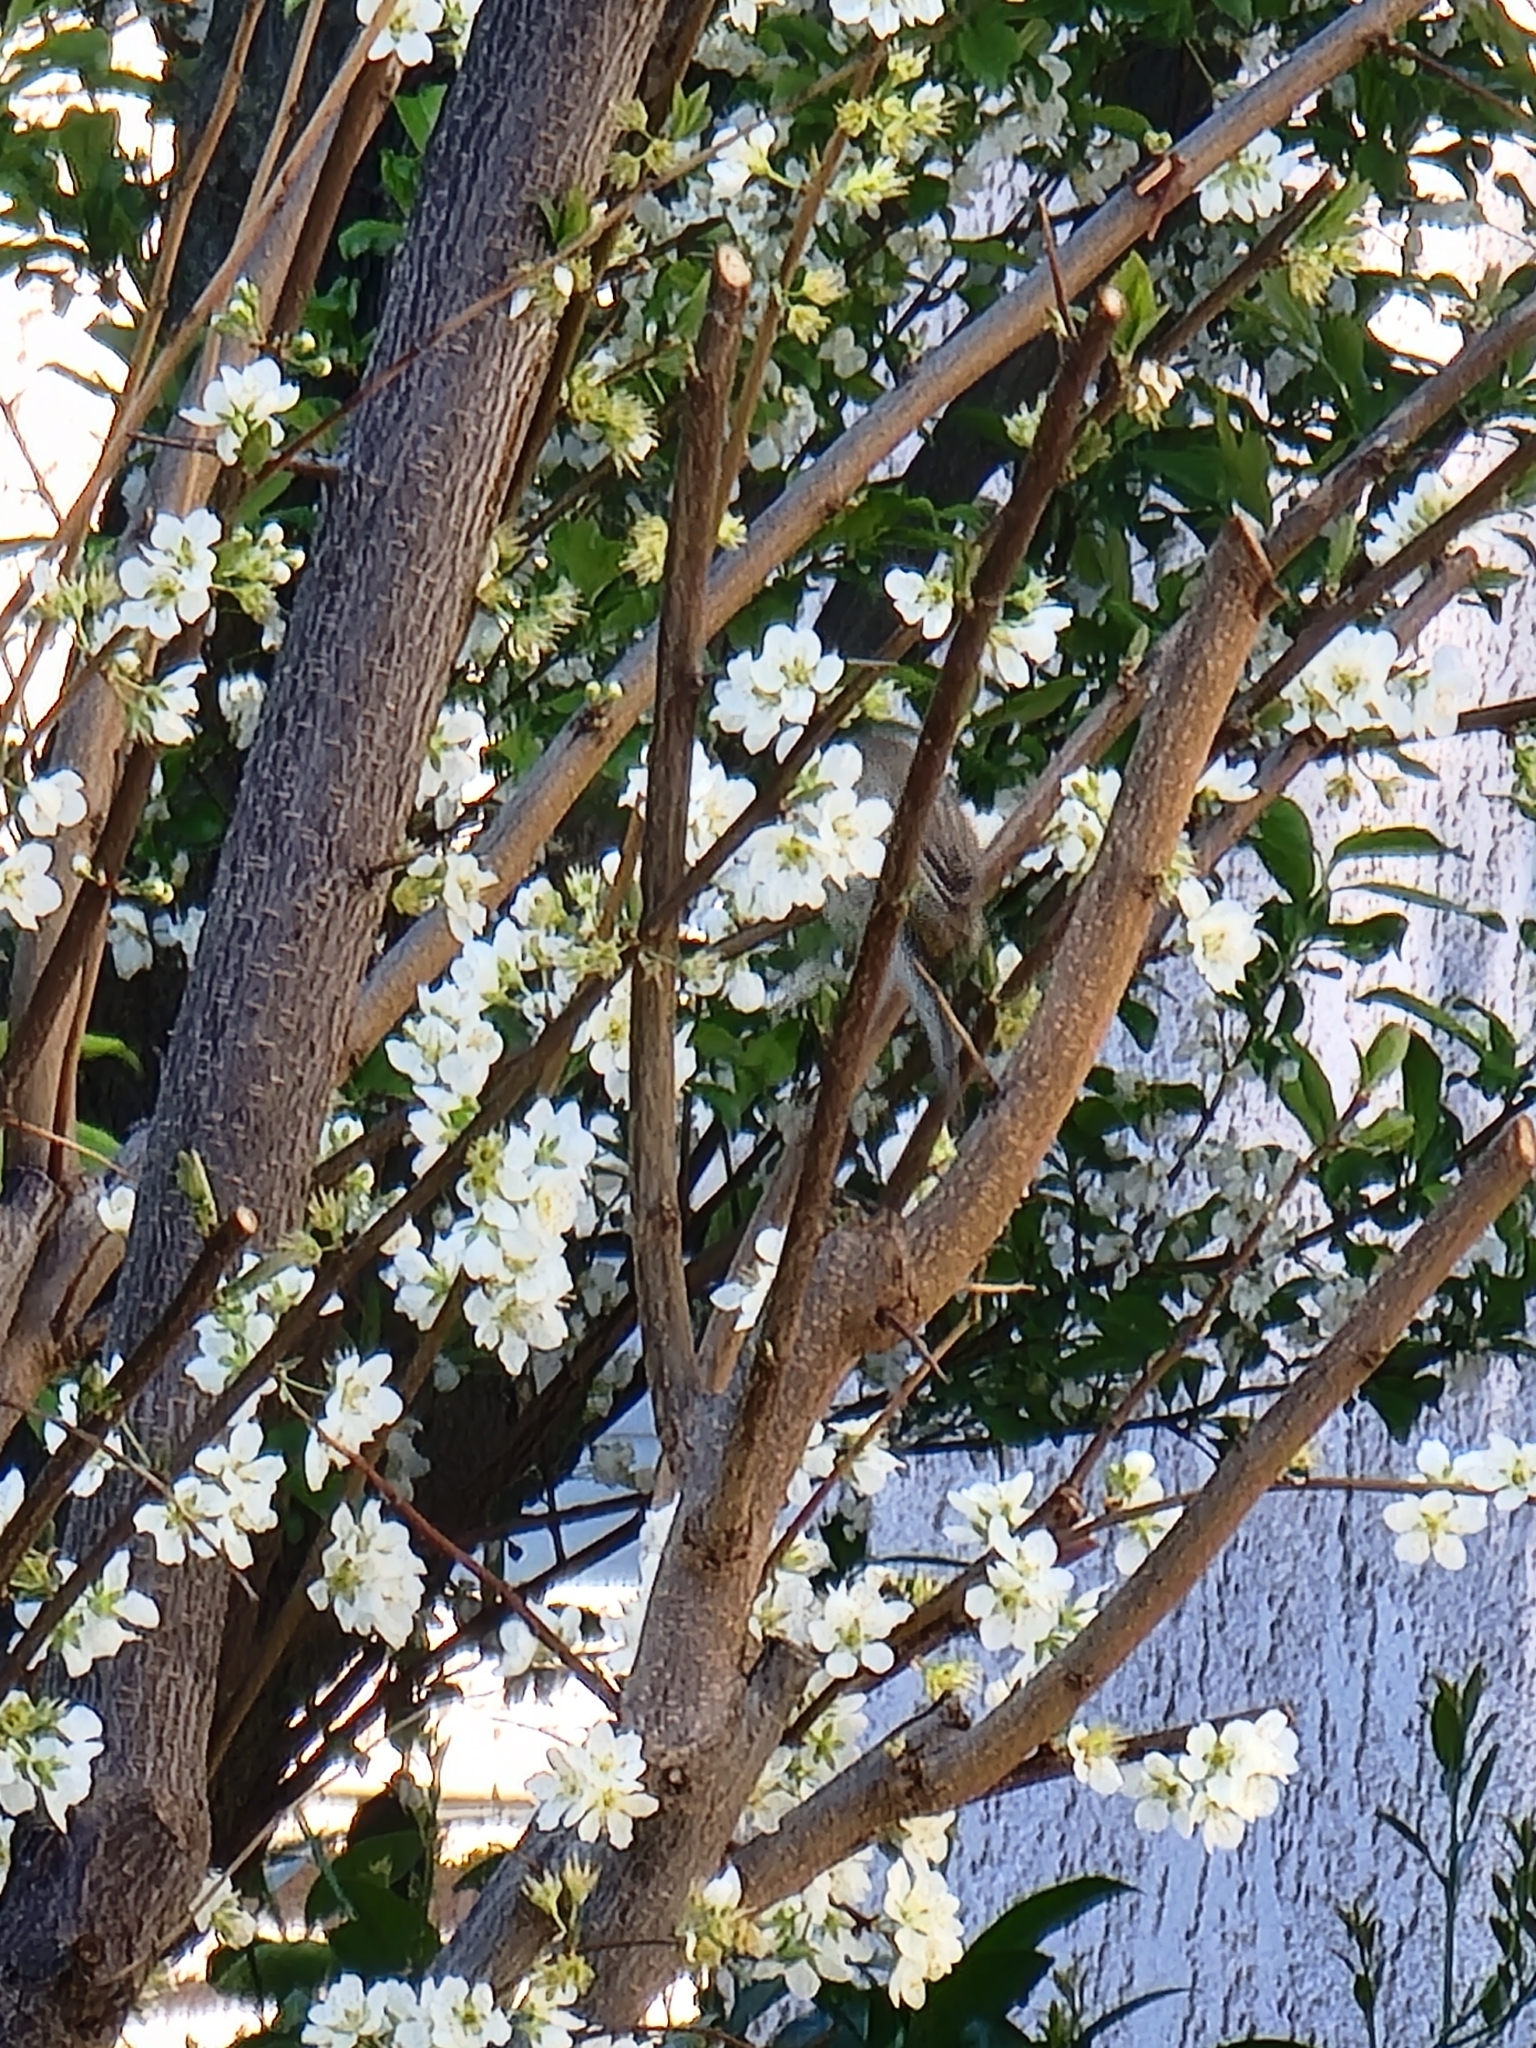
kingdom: Animalia
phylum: Chordata
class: Aves
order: Passeriformes
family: Parulidae
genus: Setophaga
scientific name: Setophaga coronata
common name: Myrtle warbler
